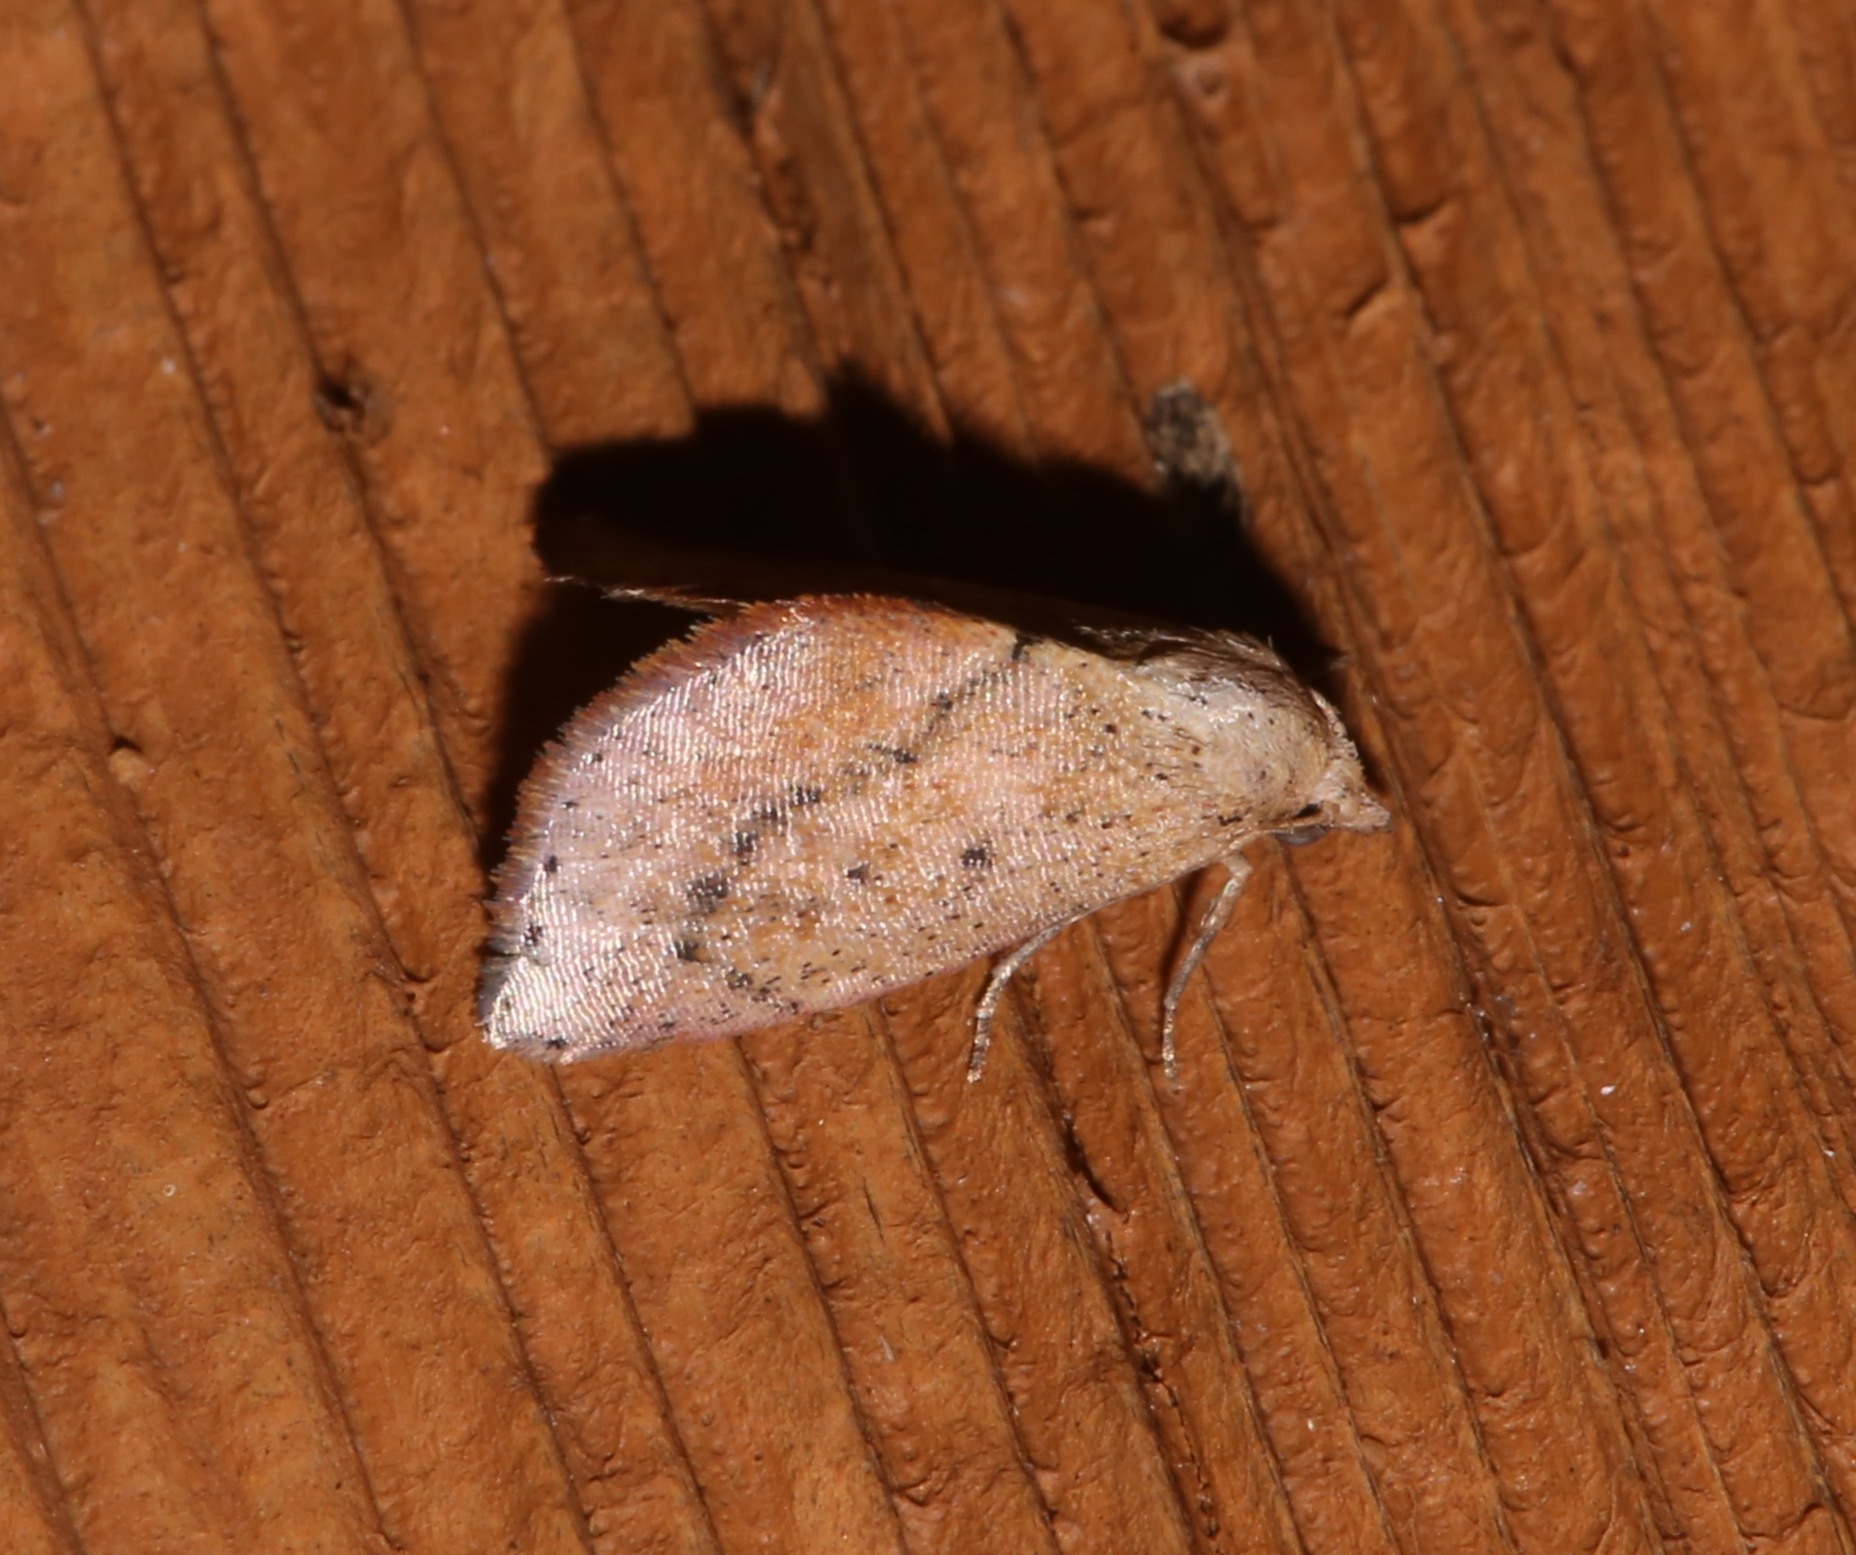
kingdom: Animalia
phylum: Arthropoda
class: Insecta
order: Lepidoptera
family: Noctuidae
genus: Proroblemma
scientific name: Proroblemma testa
